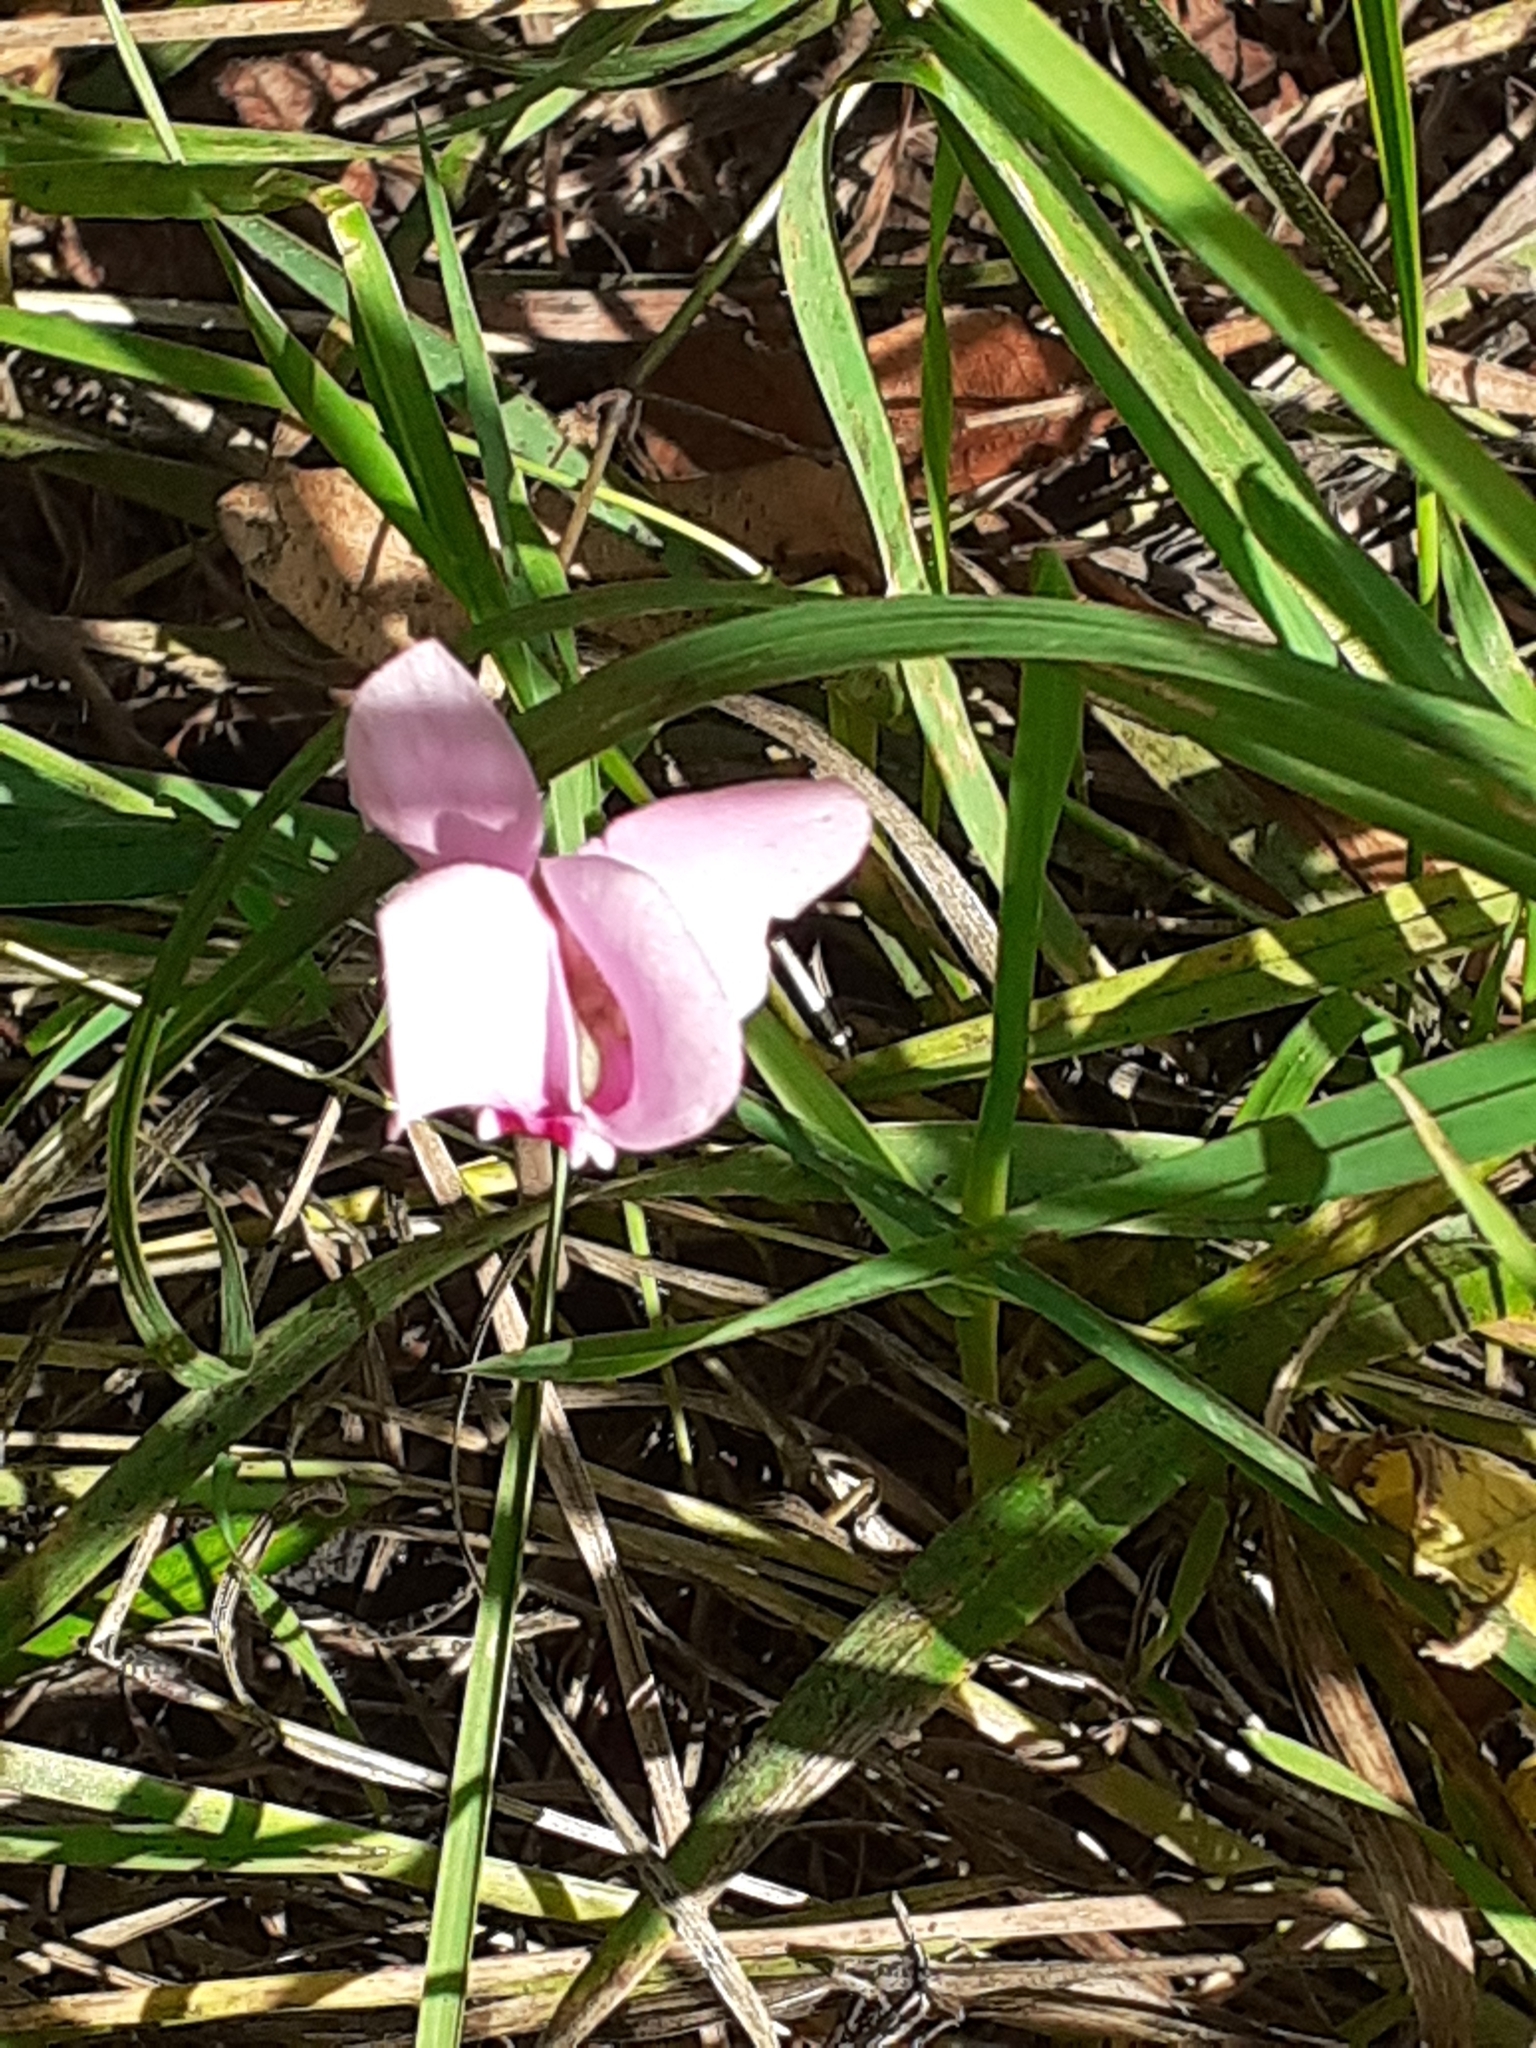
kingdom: Plantae
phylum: Tracheophyta
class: Magnoliopsida
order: Ericales
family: Primulaceae
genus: Cyclamen
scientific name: Cyclamen hederifolium
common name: Sowbread
